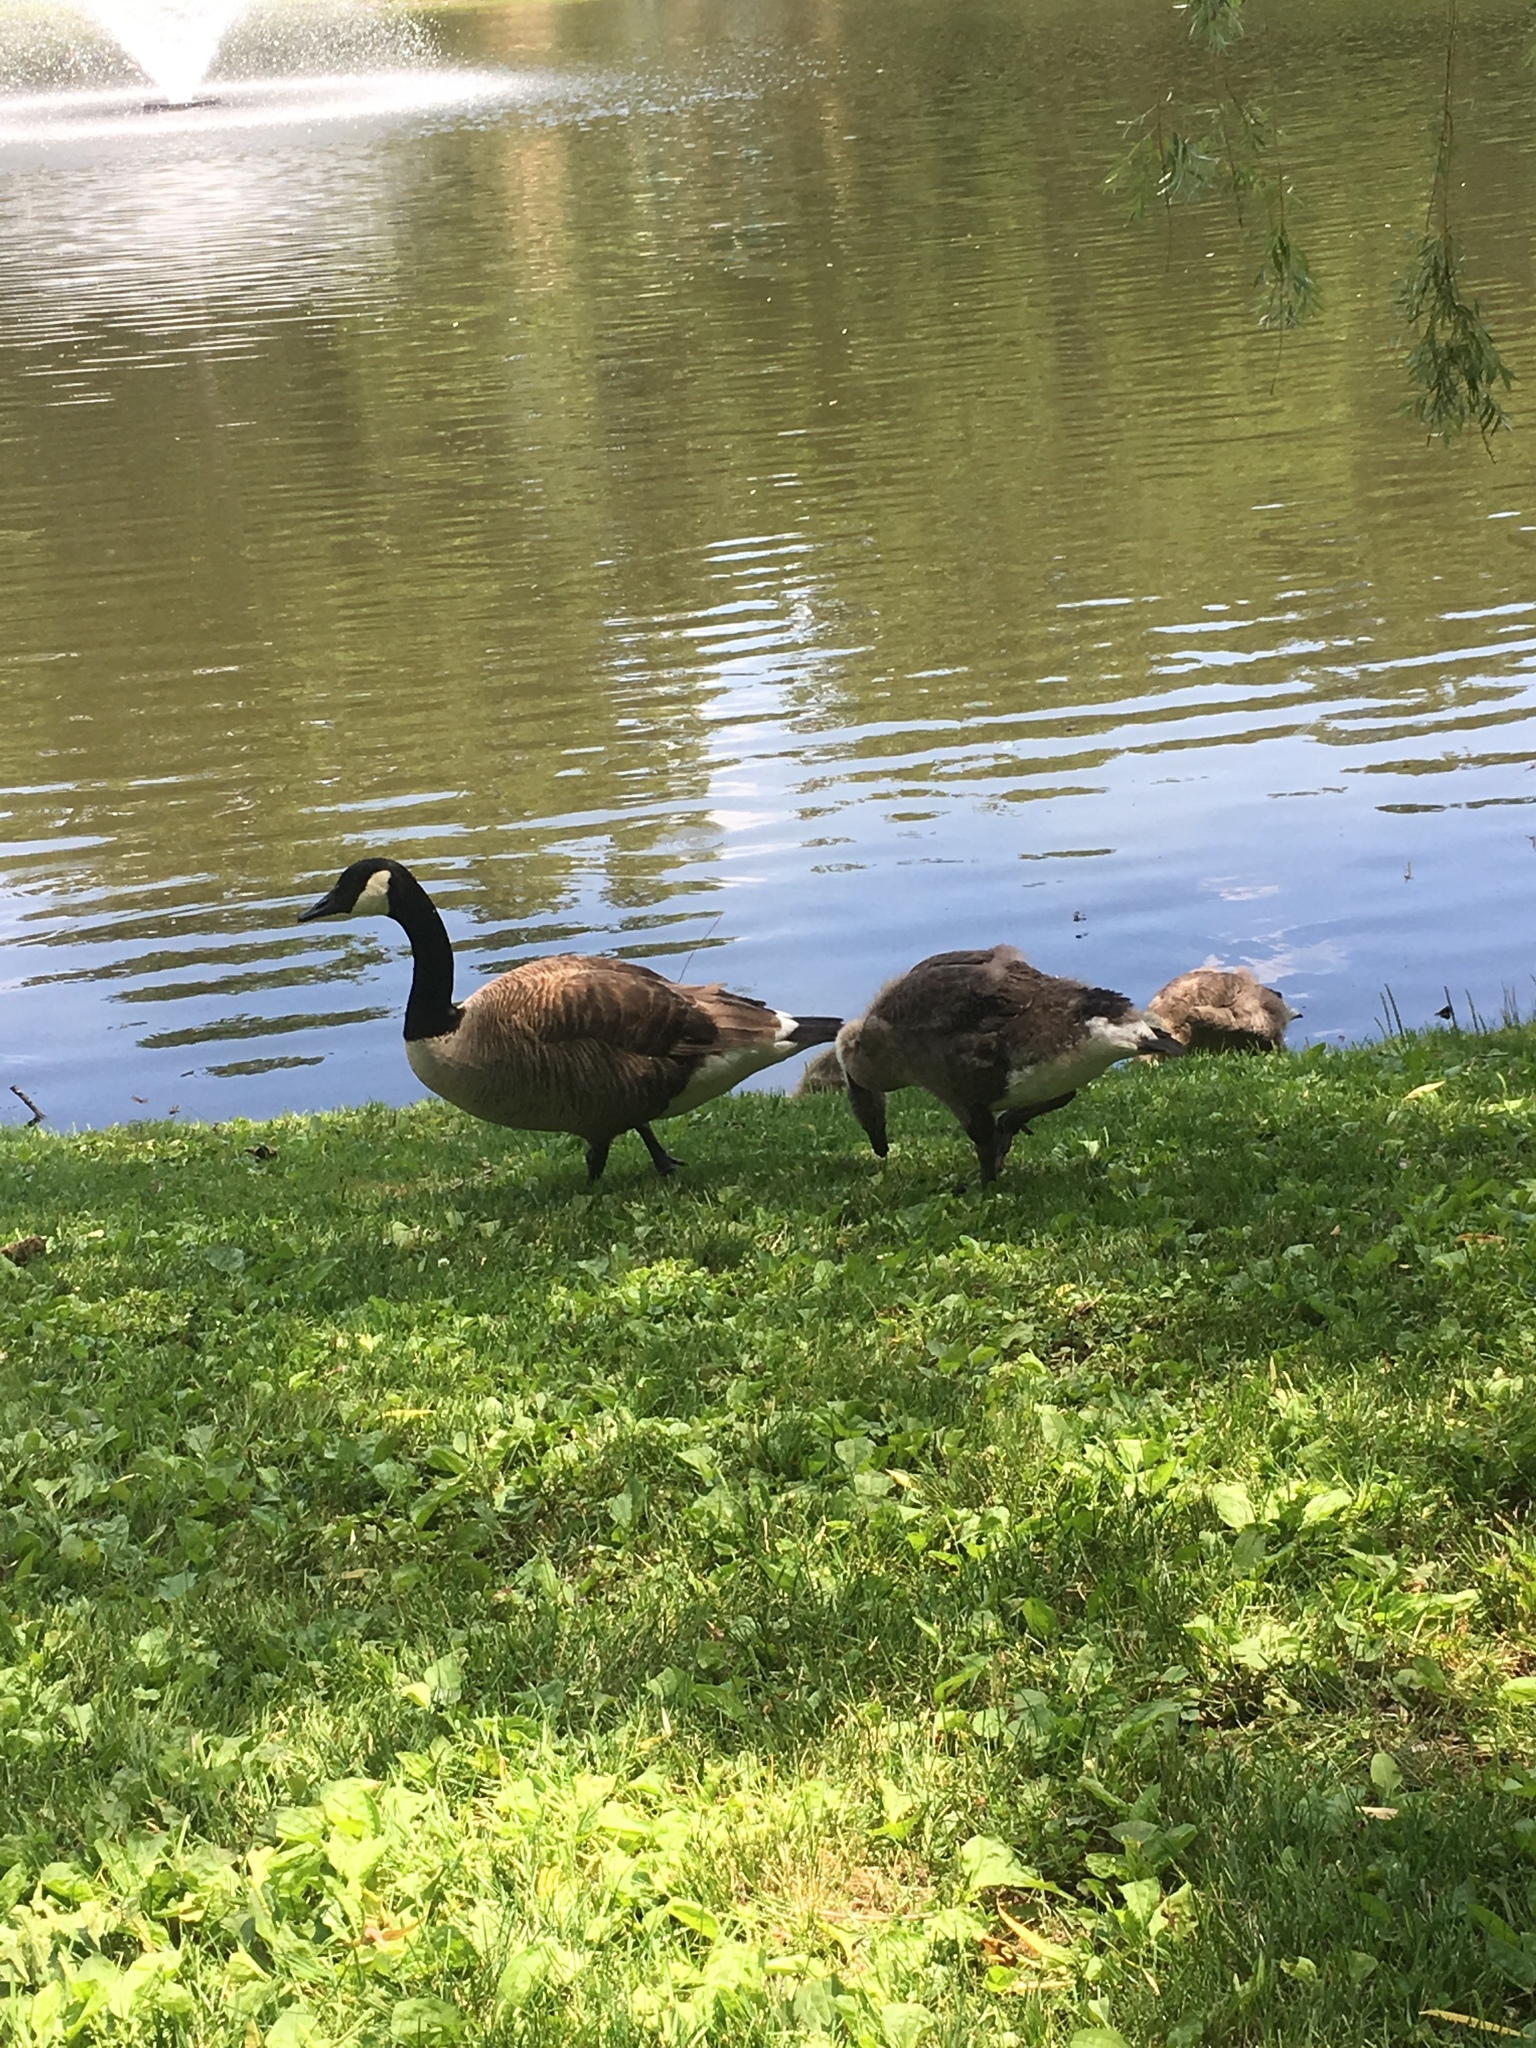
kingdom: Animalia
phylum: Chordata
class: Aves
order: Anseriformes
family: Anatidae
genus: Branta
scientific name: Branta canadensis
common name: Canada goose
